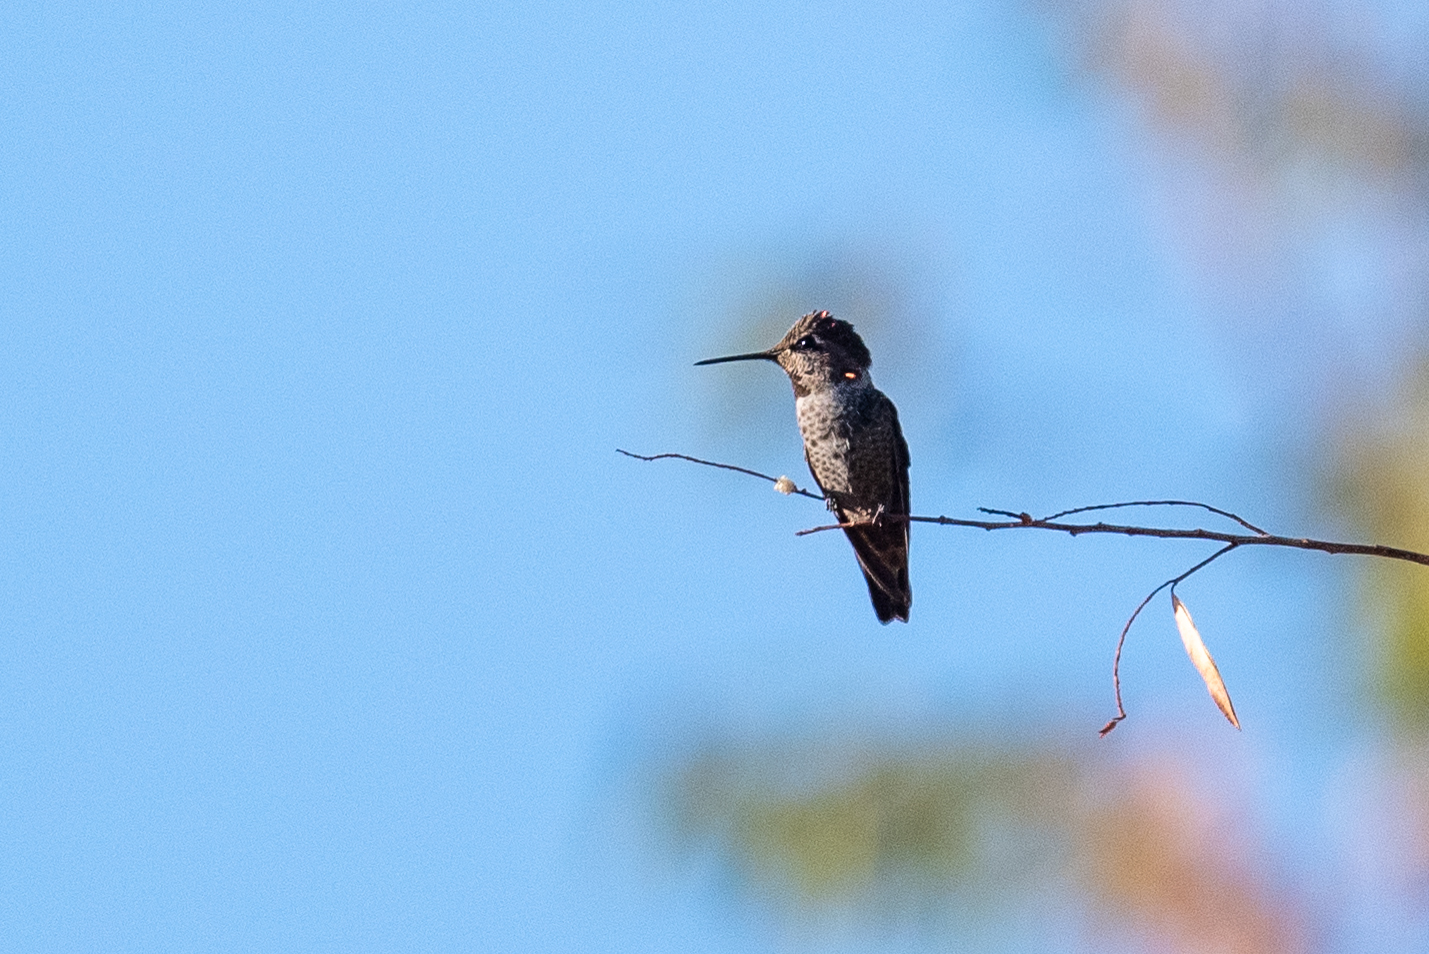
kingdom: Animalia
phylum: Chordata
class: Aves
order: Apodiformes
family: Trochilidae
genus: Calypte
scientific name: Calypte anna
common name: Anna's hummingbird
